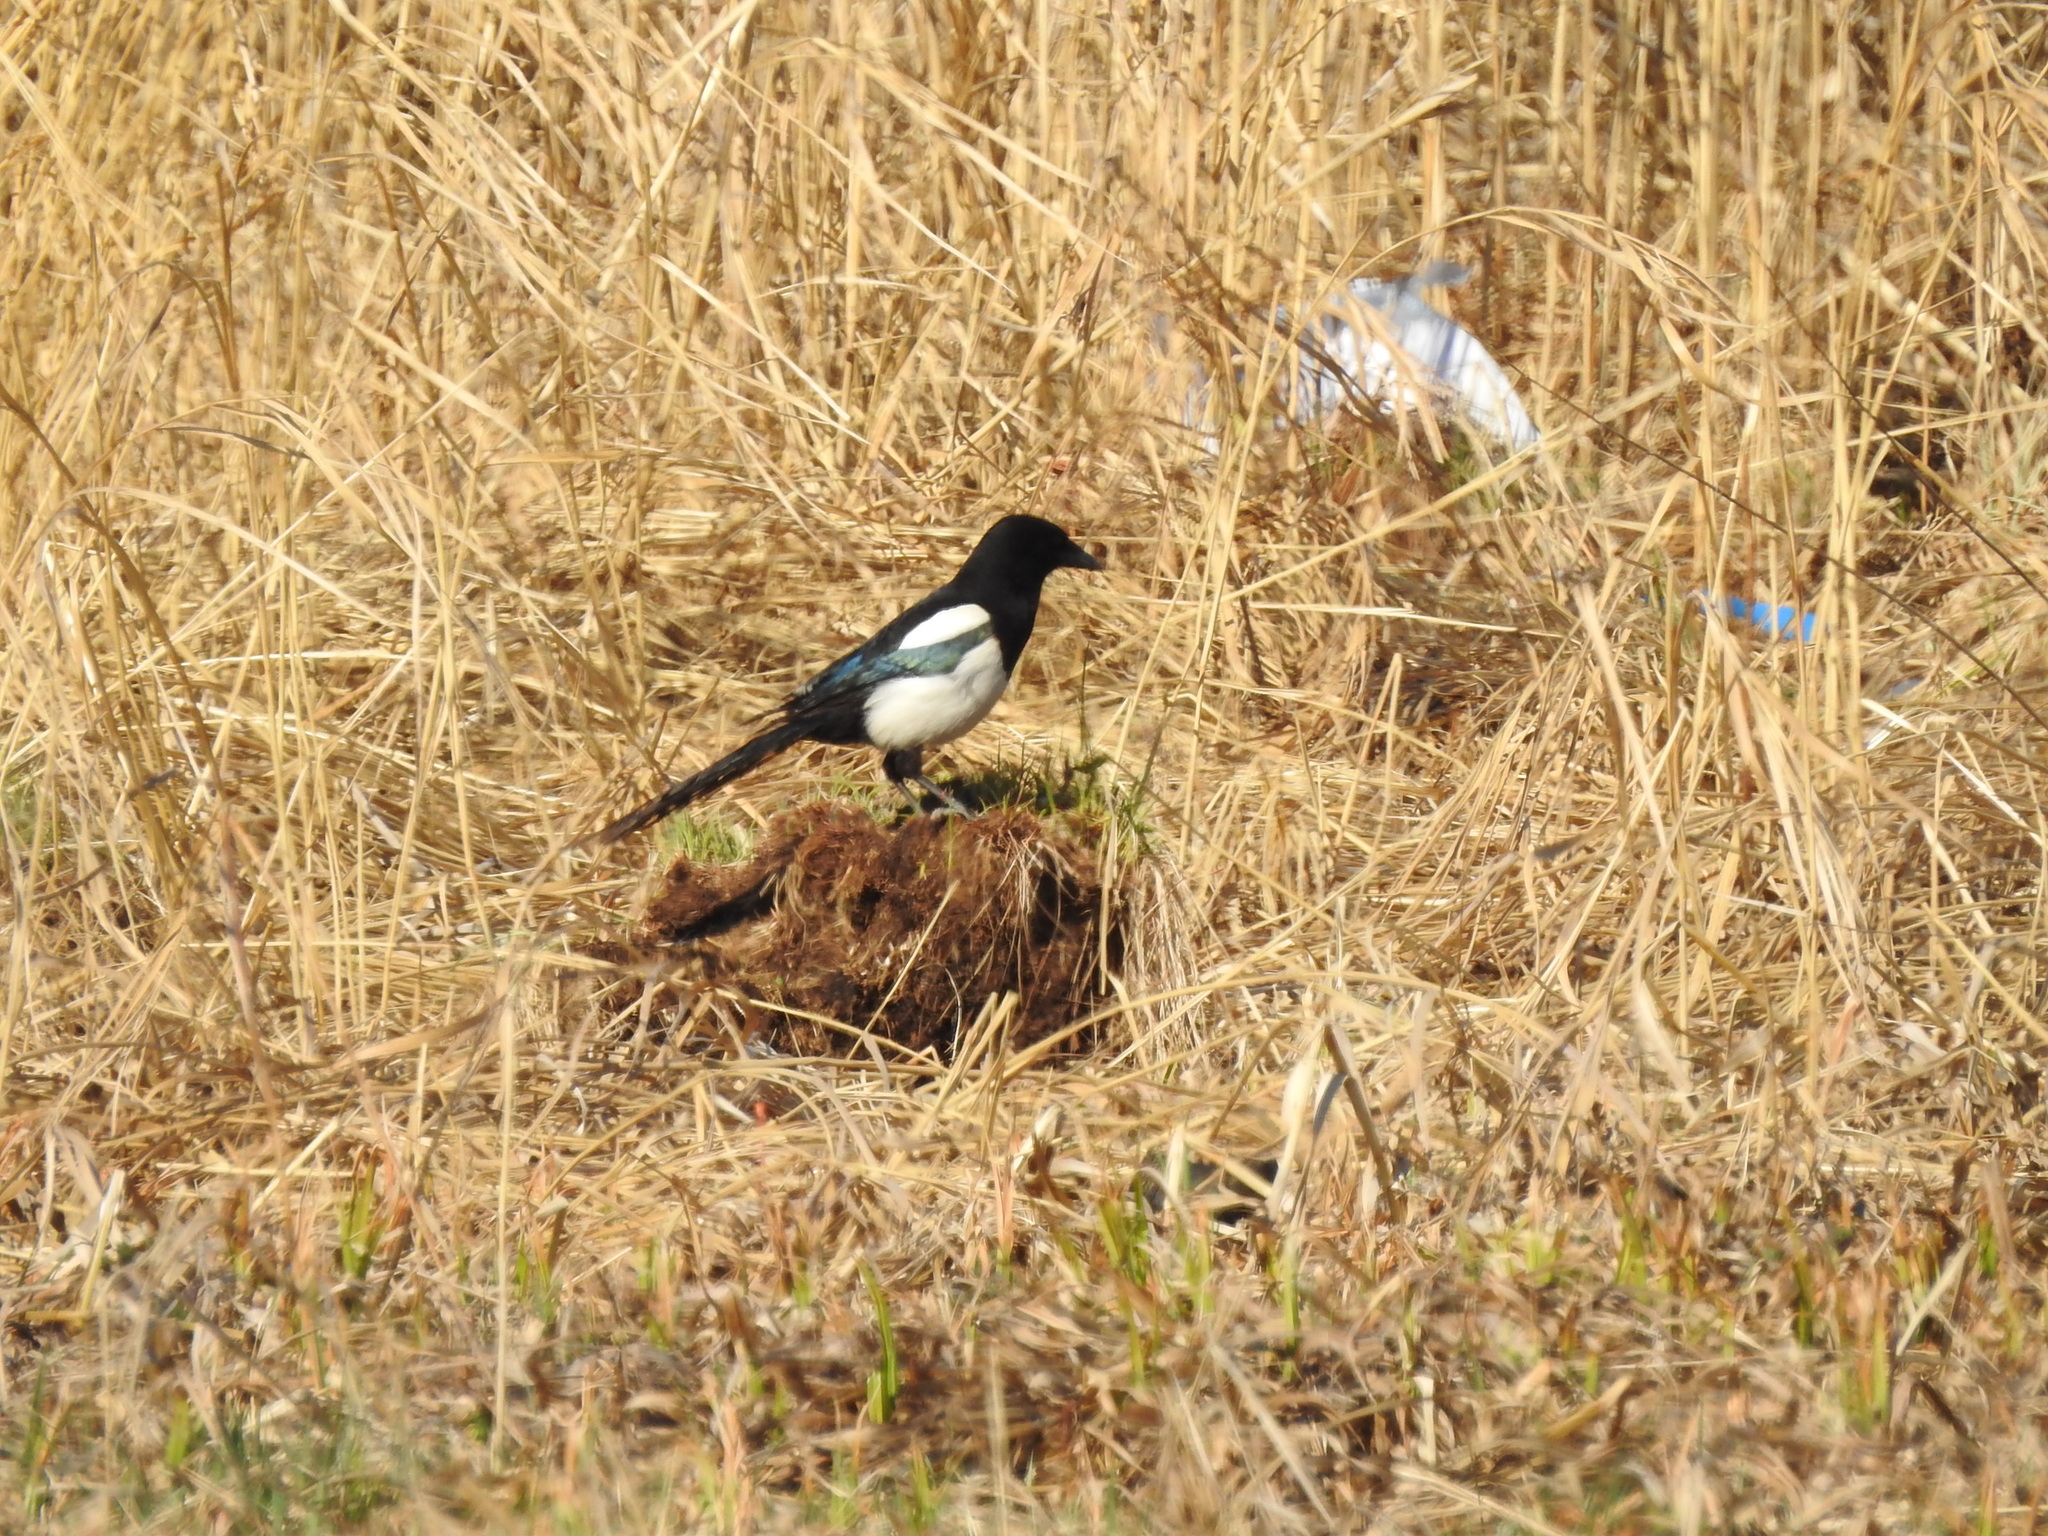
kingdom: Animalia
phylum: Chordata
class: Aves
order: Passeriformes
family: Corvidae
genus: Pica
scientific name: Pica pica
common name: Eurasian magpie
